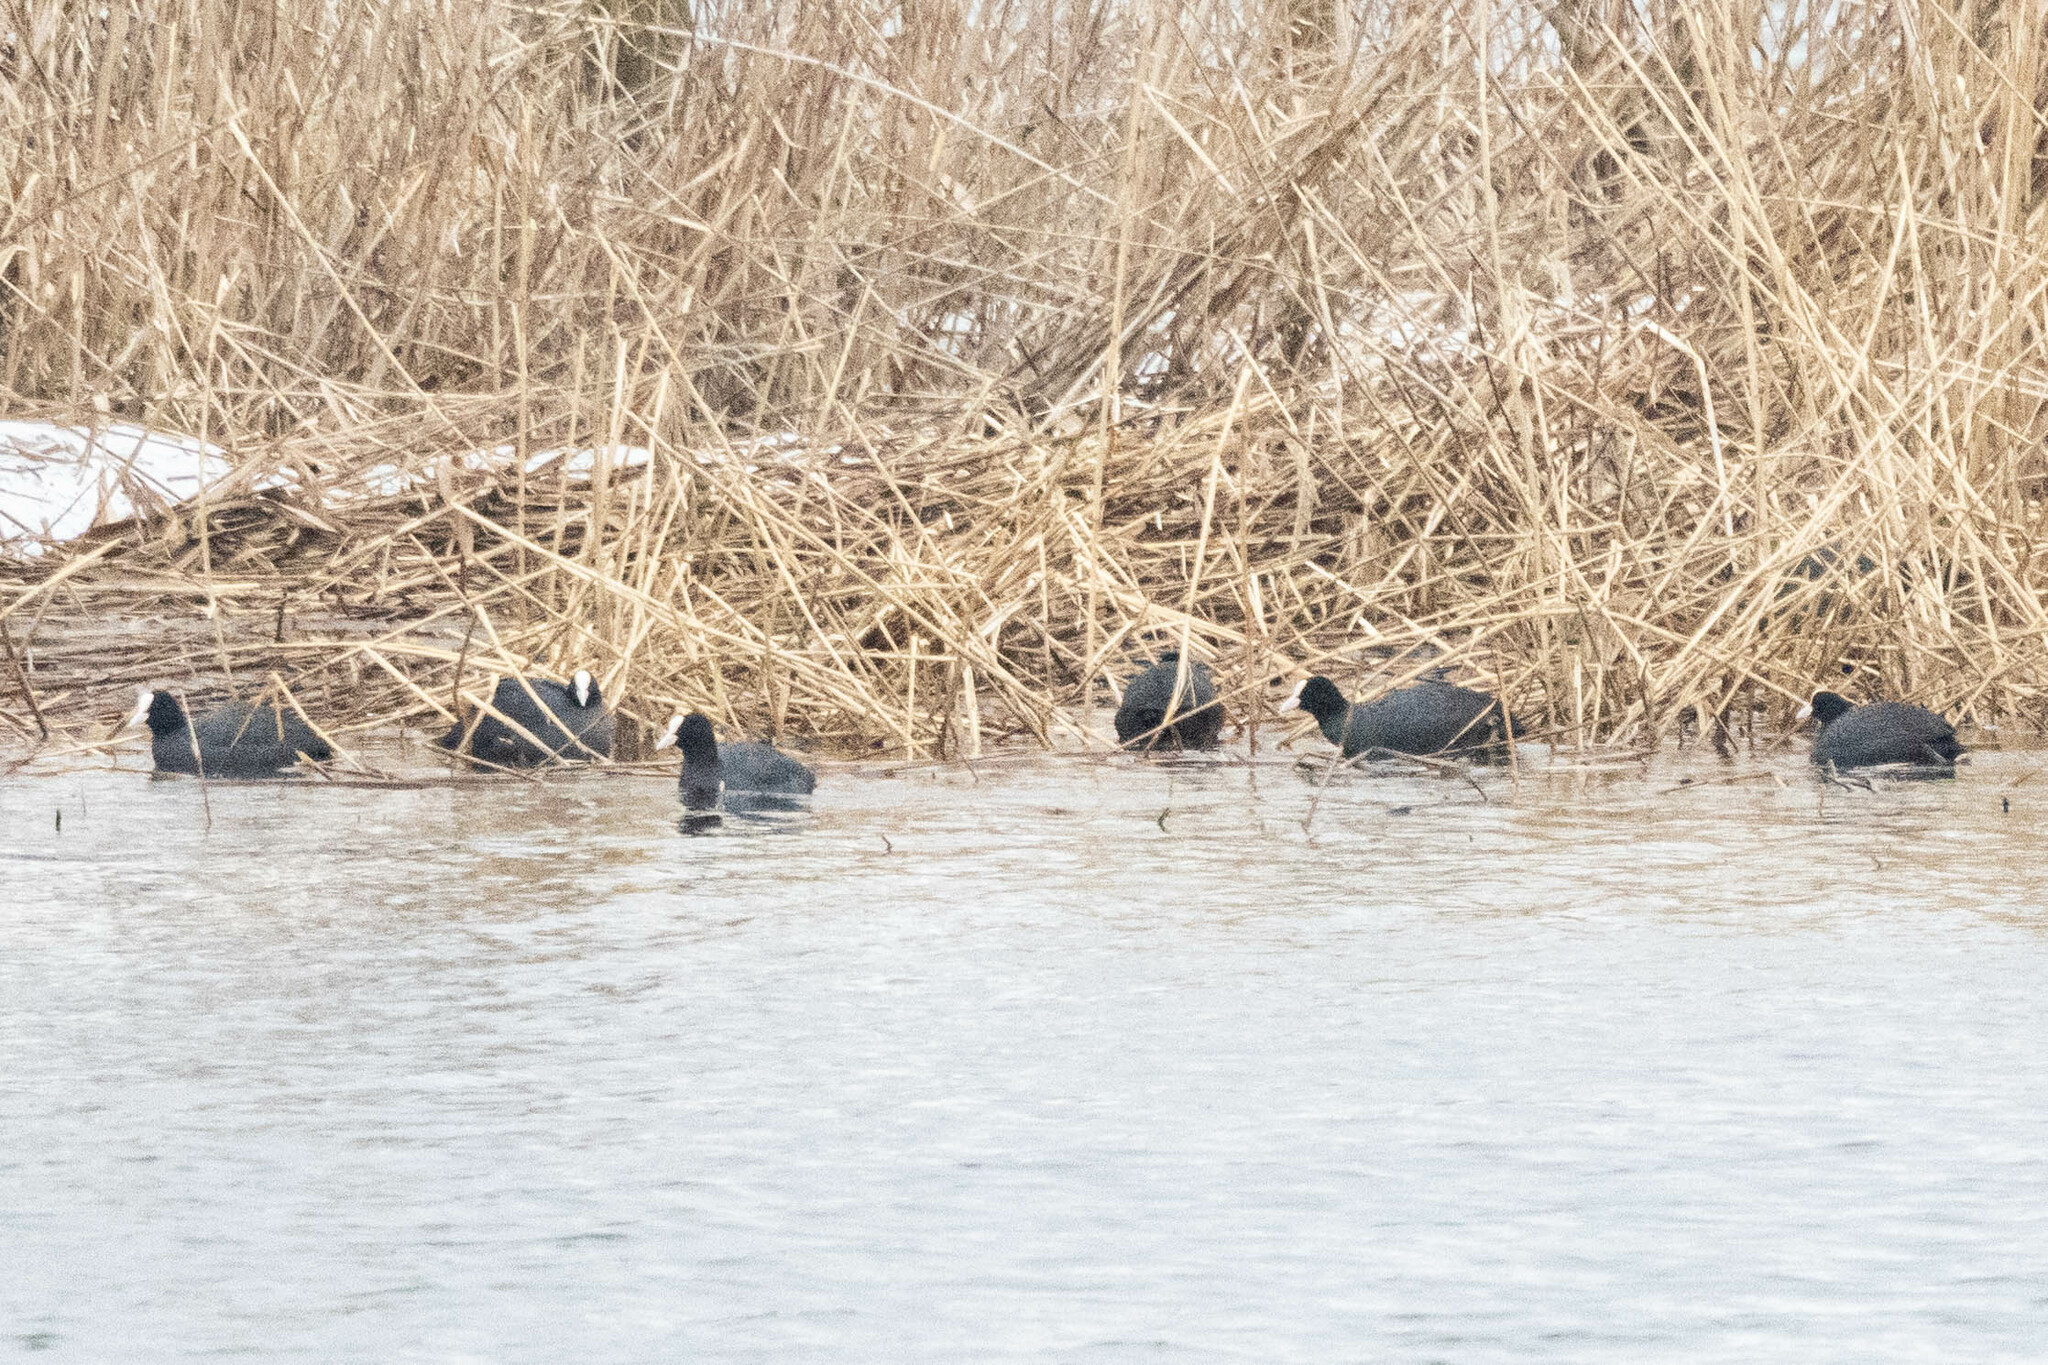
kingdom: Animalia
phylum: Chordata
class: Aves
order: Gruiformes
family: Rallidae
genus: Fulica
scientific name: Fulica atra
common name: Eurasian coot
